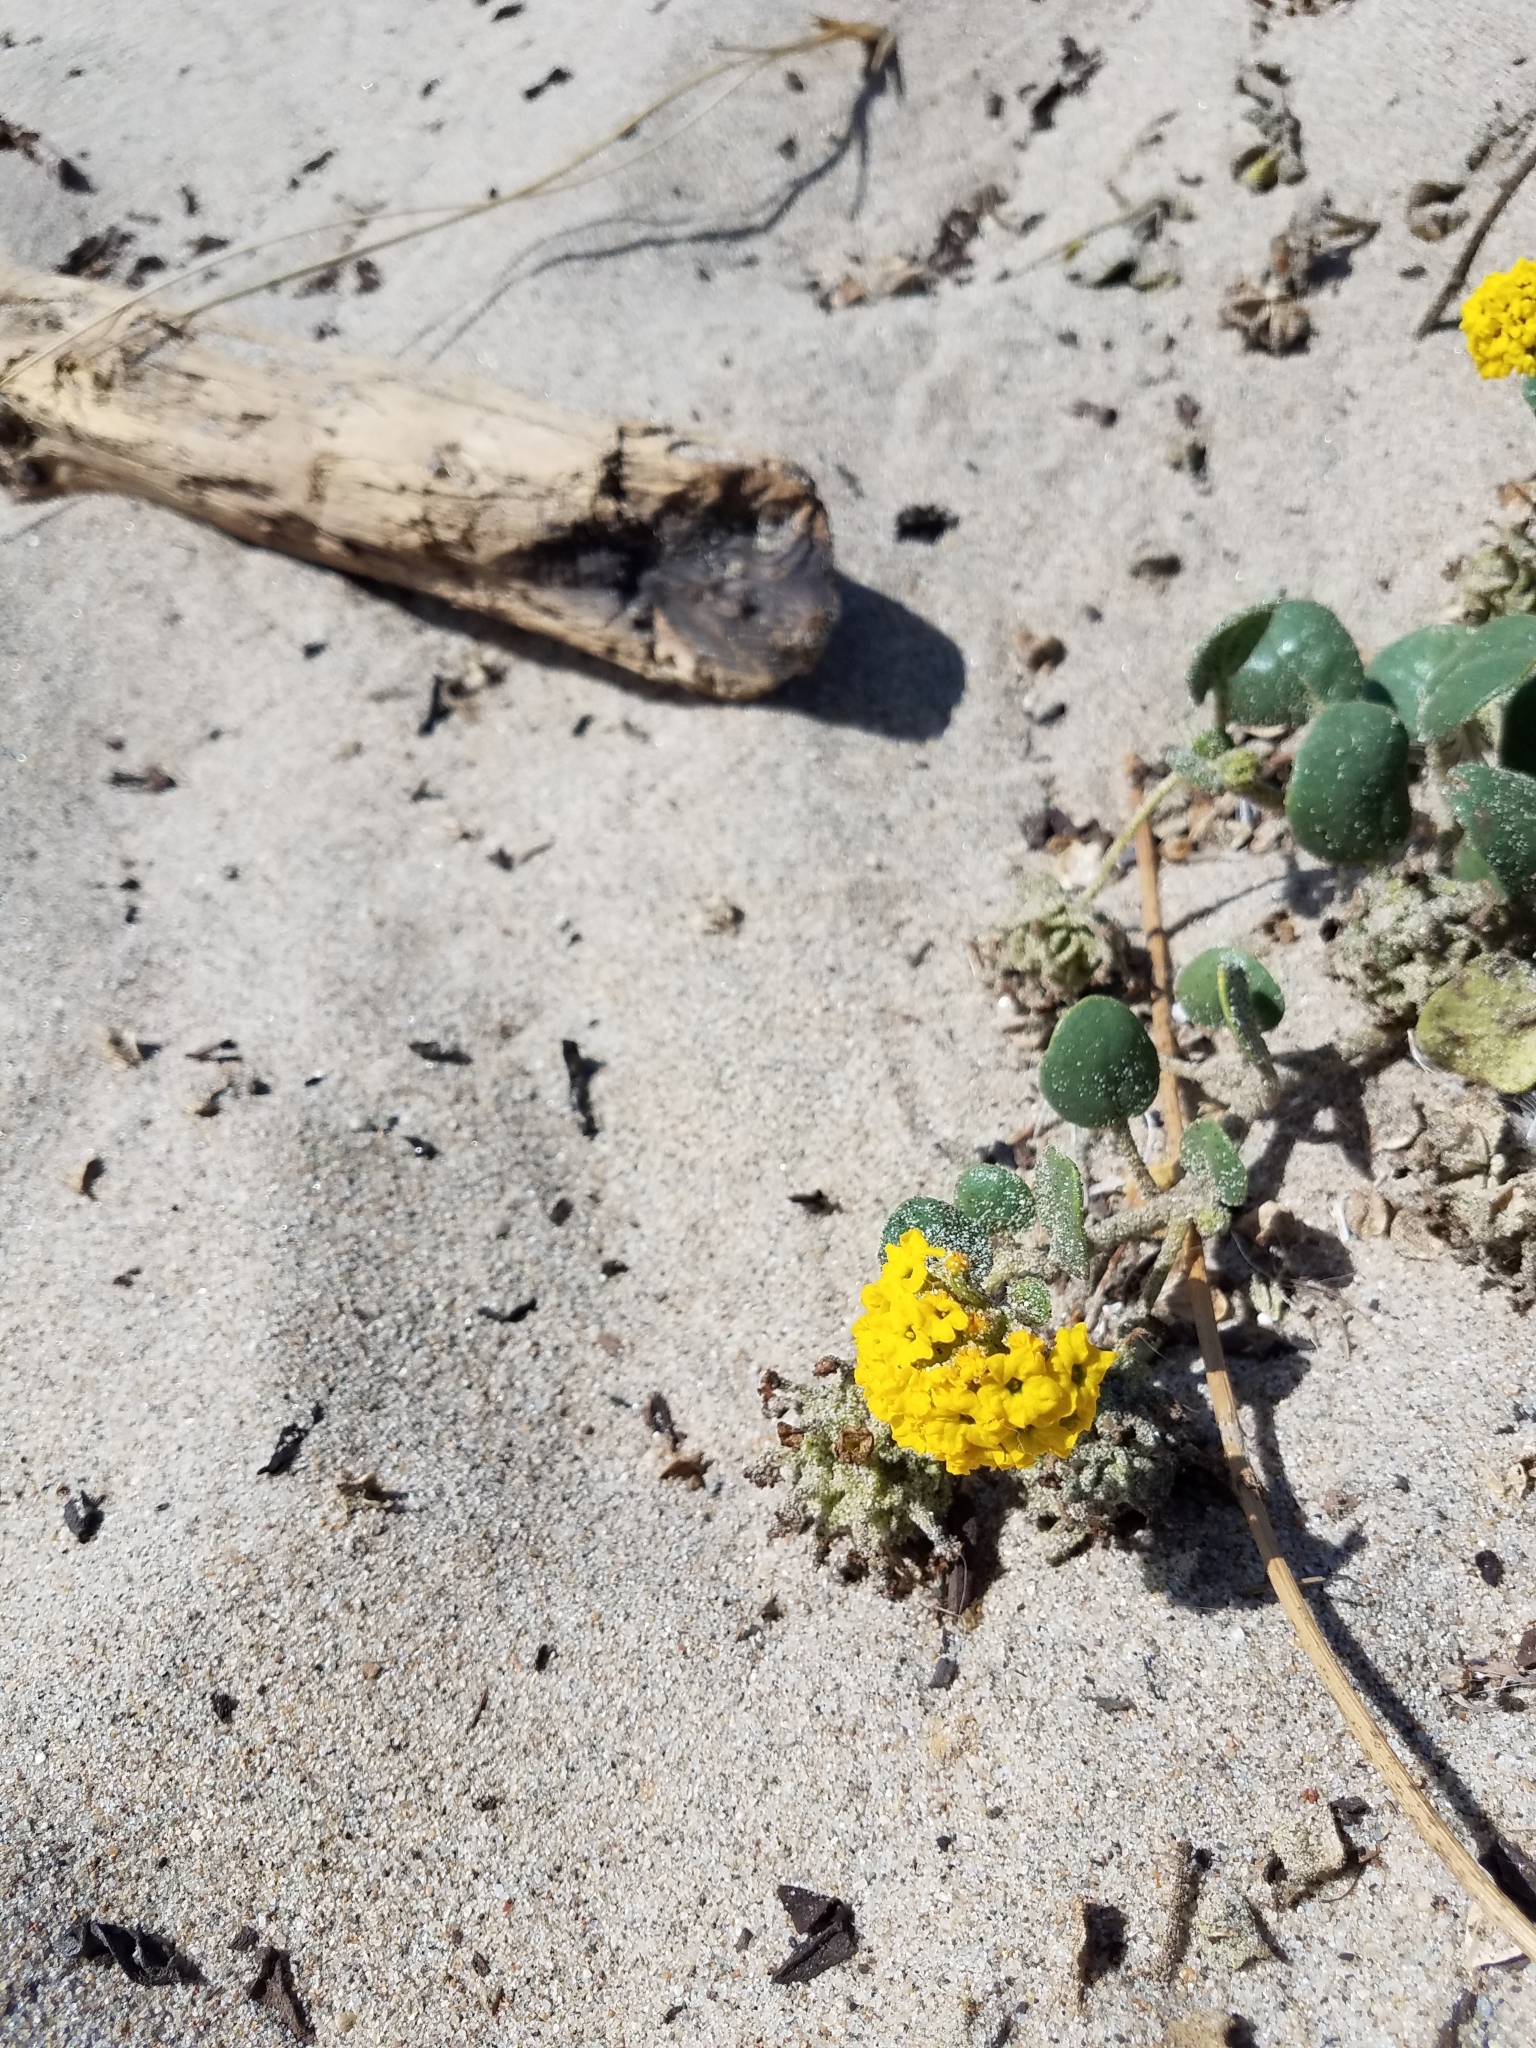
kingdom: Plantae
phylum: Tracheophyta
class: Magnoliopsida
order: Caryophyllales
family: Nyctaginaceae
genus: Abronia
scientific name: Abronia latifolia
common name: Yellow sand-verbena
